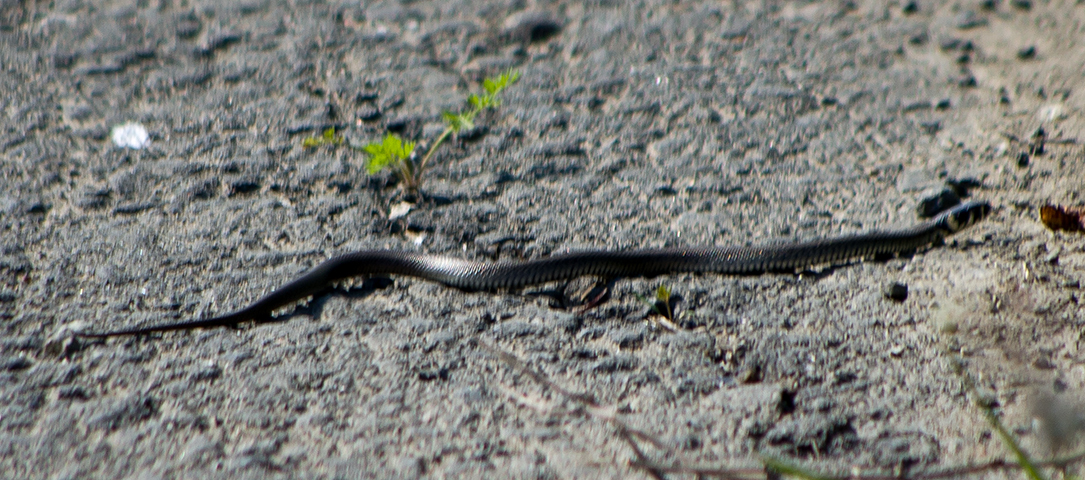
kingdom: Animalia
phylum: Chordata
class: Squamata
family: Colubridae
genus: Natrix
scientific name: Natrix natrix
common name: Grass snake
